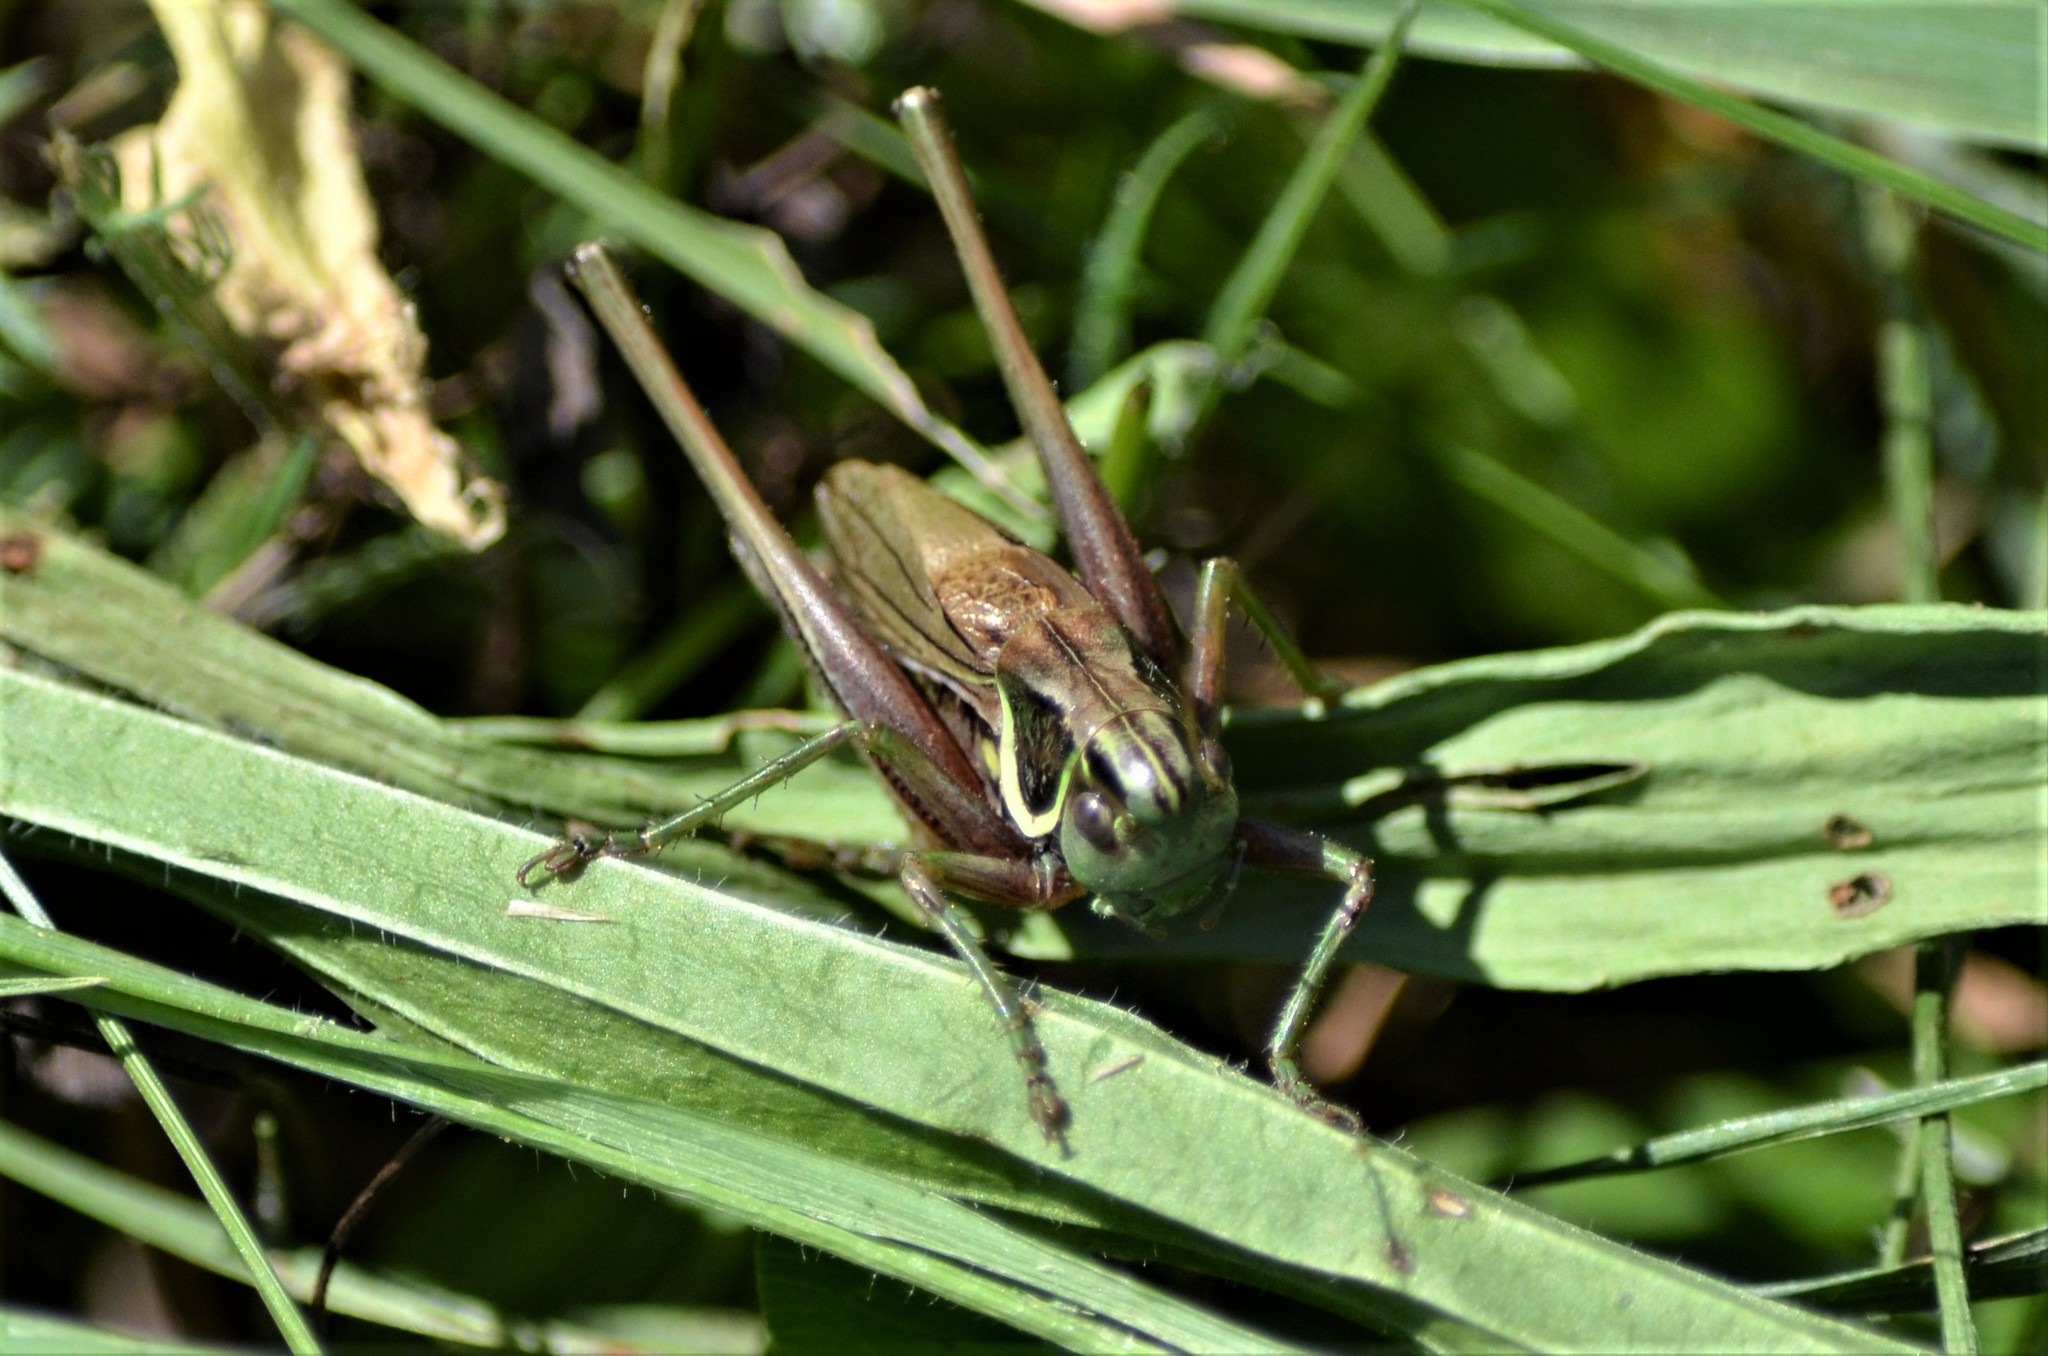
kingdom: Animalia
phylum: Arthropoda
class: Insecta
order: Orthoptera
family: Tettigoniidae
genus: Roeseliana
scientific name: Roeseliana roeselii
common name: Roesel's bush cricket
